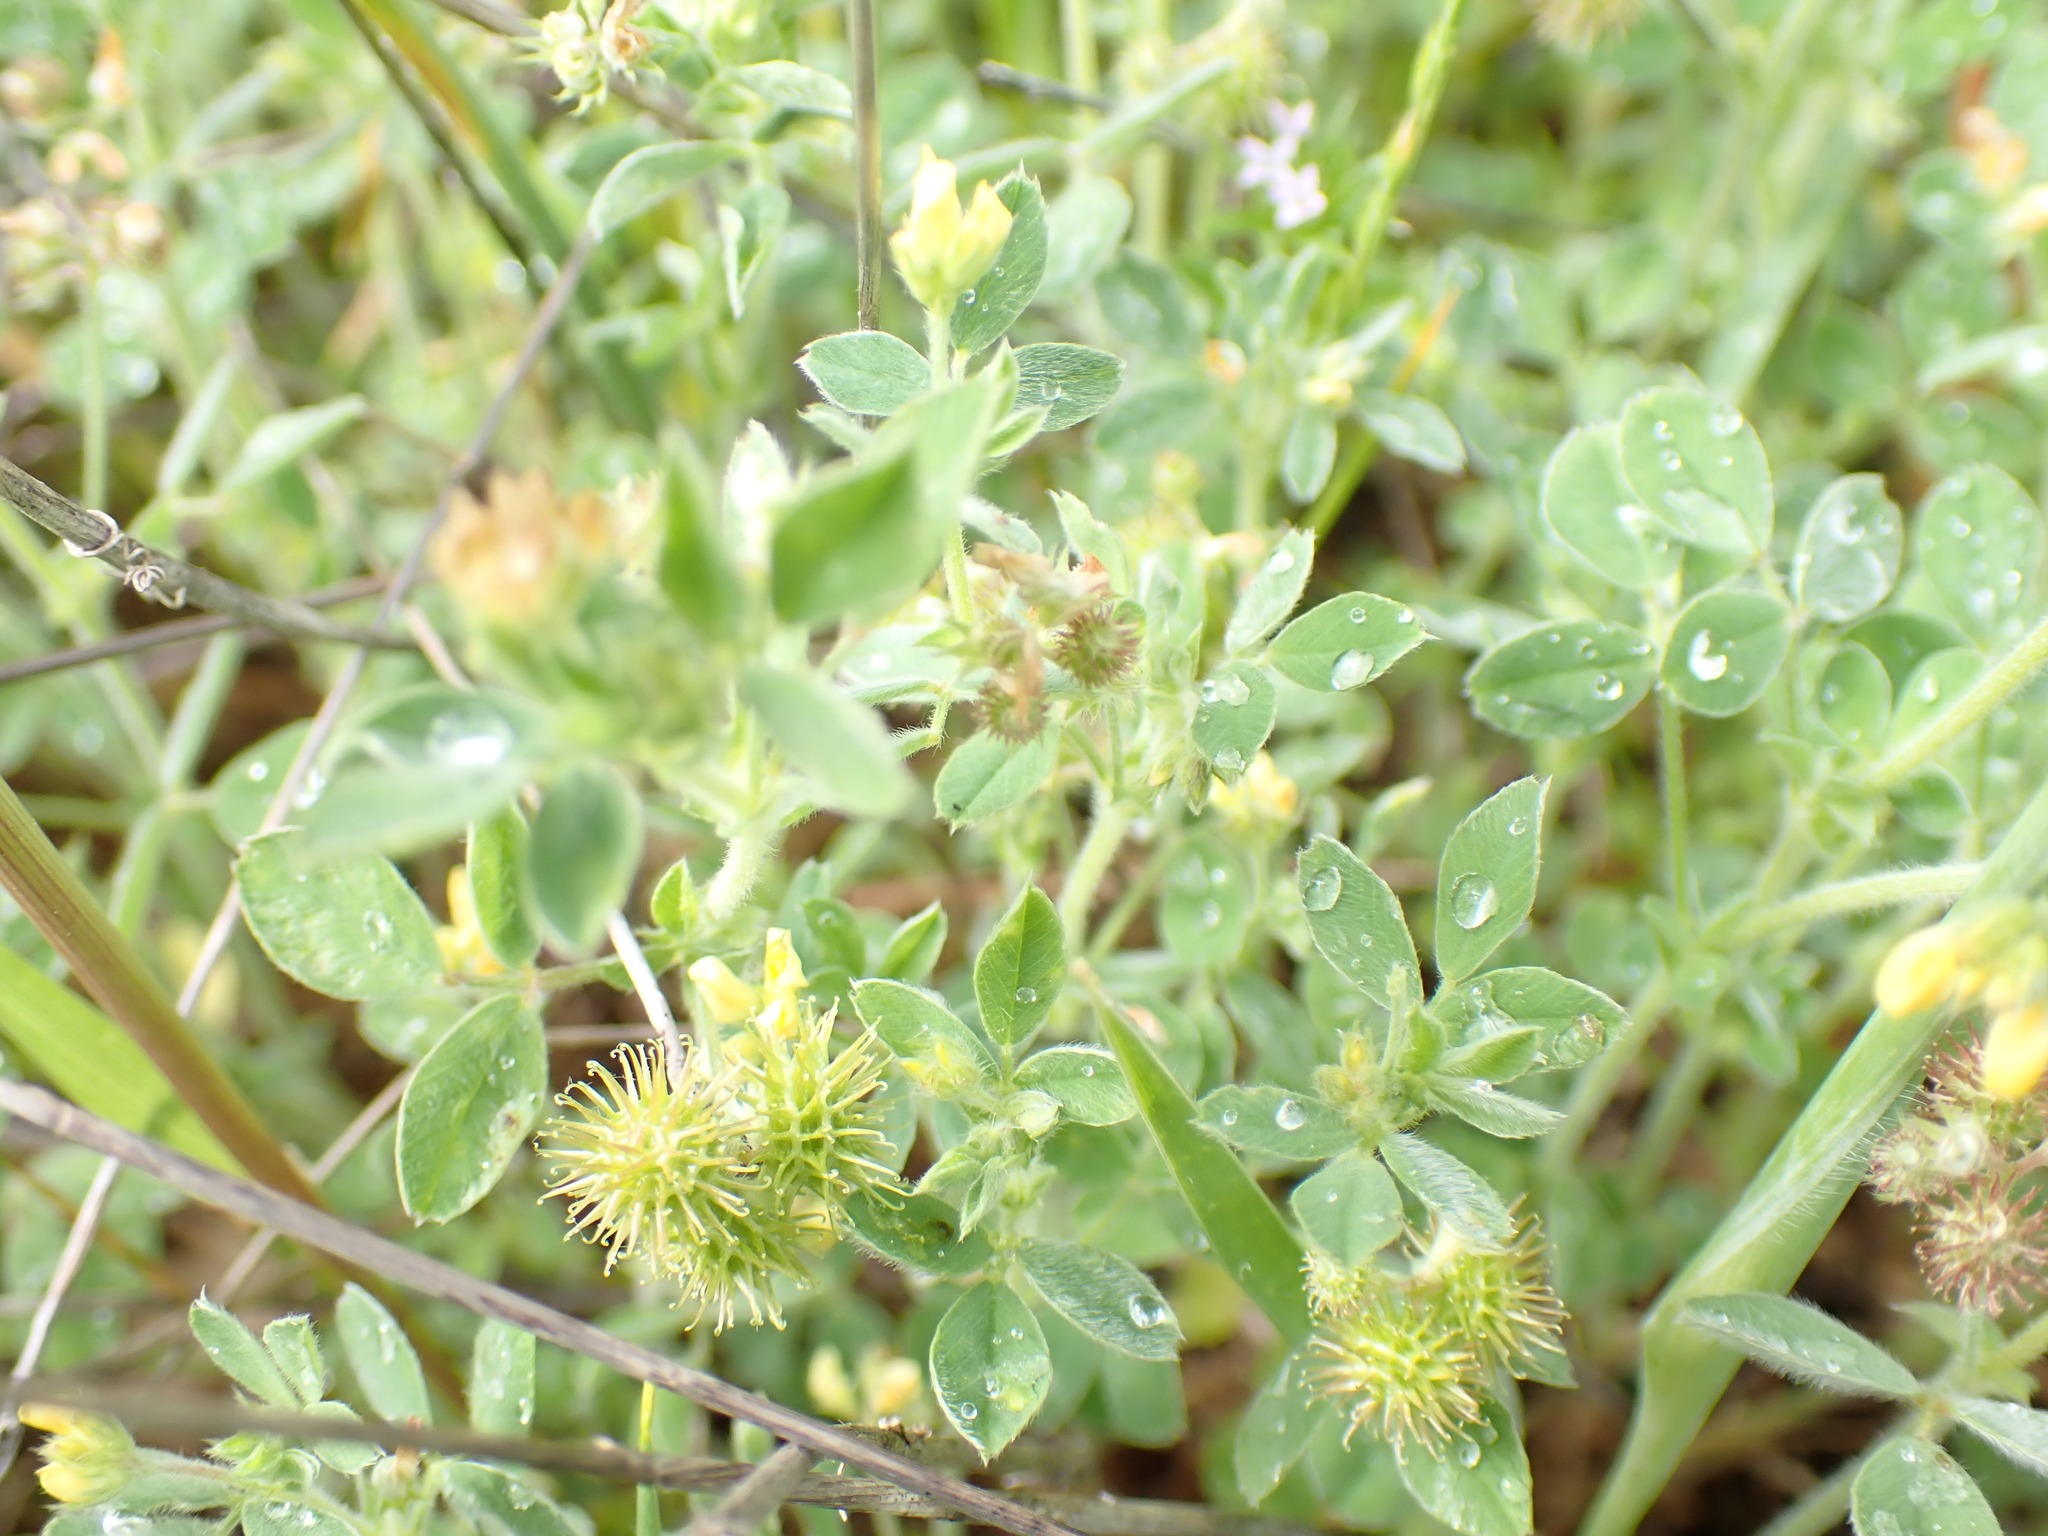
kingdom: Plantae
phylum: Tracheophyta
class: Magnoliopsida
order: Fabales
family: Fabaceae
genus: Medicago
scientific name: Medicago minima
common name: Little bur-clover
